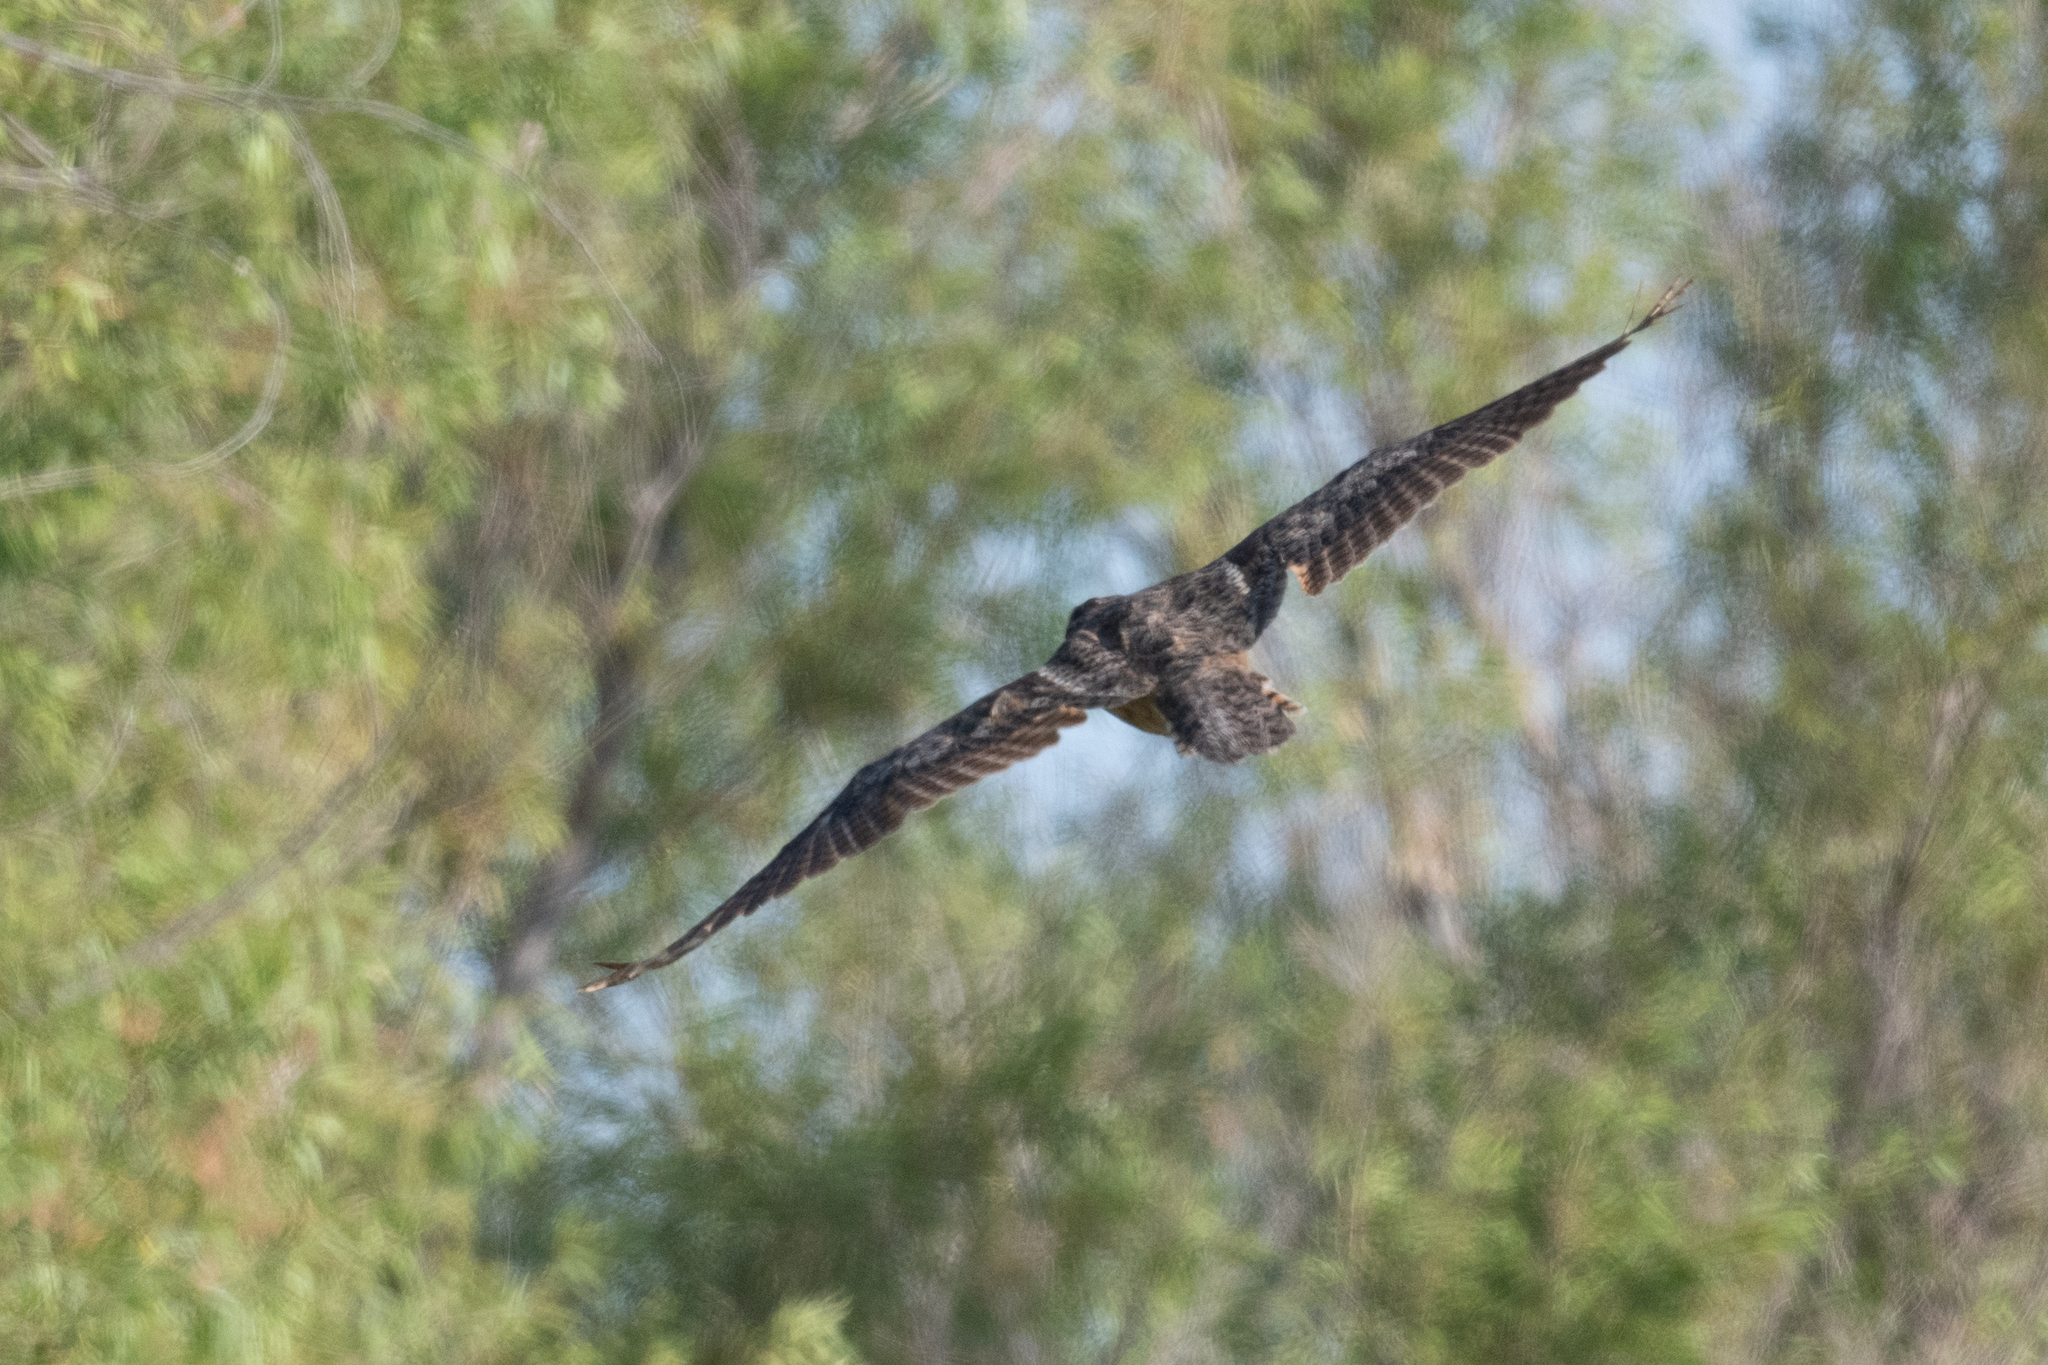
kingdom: Animalia
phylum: Chordata
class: Aves
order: Strigiformes
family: Strigidae
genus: Bubo
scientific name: Bubo virginianus
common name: Great horned owl
